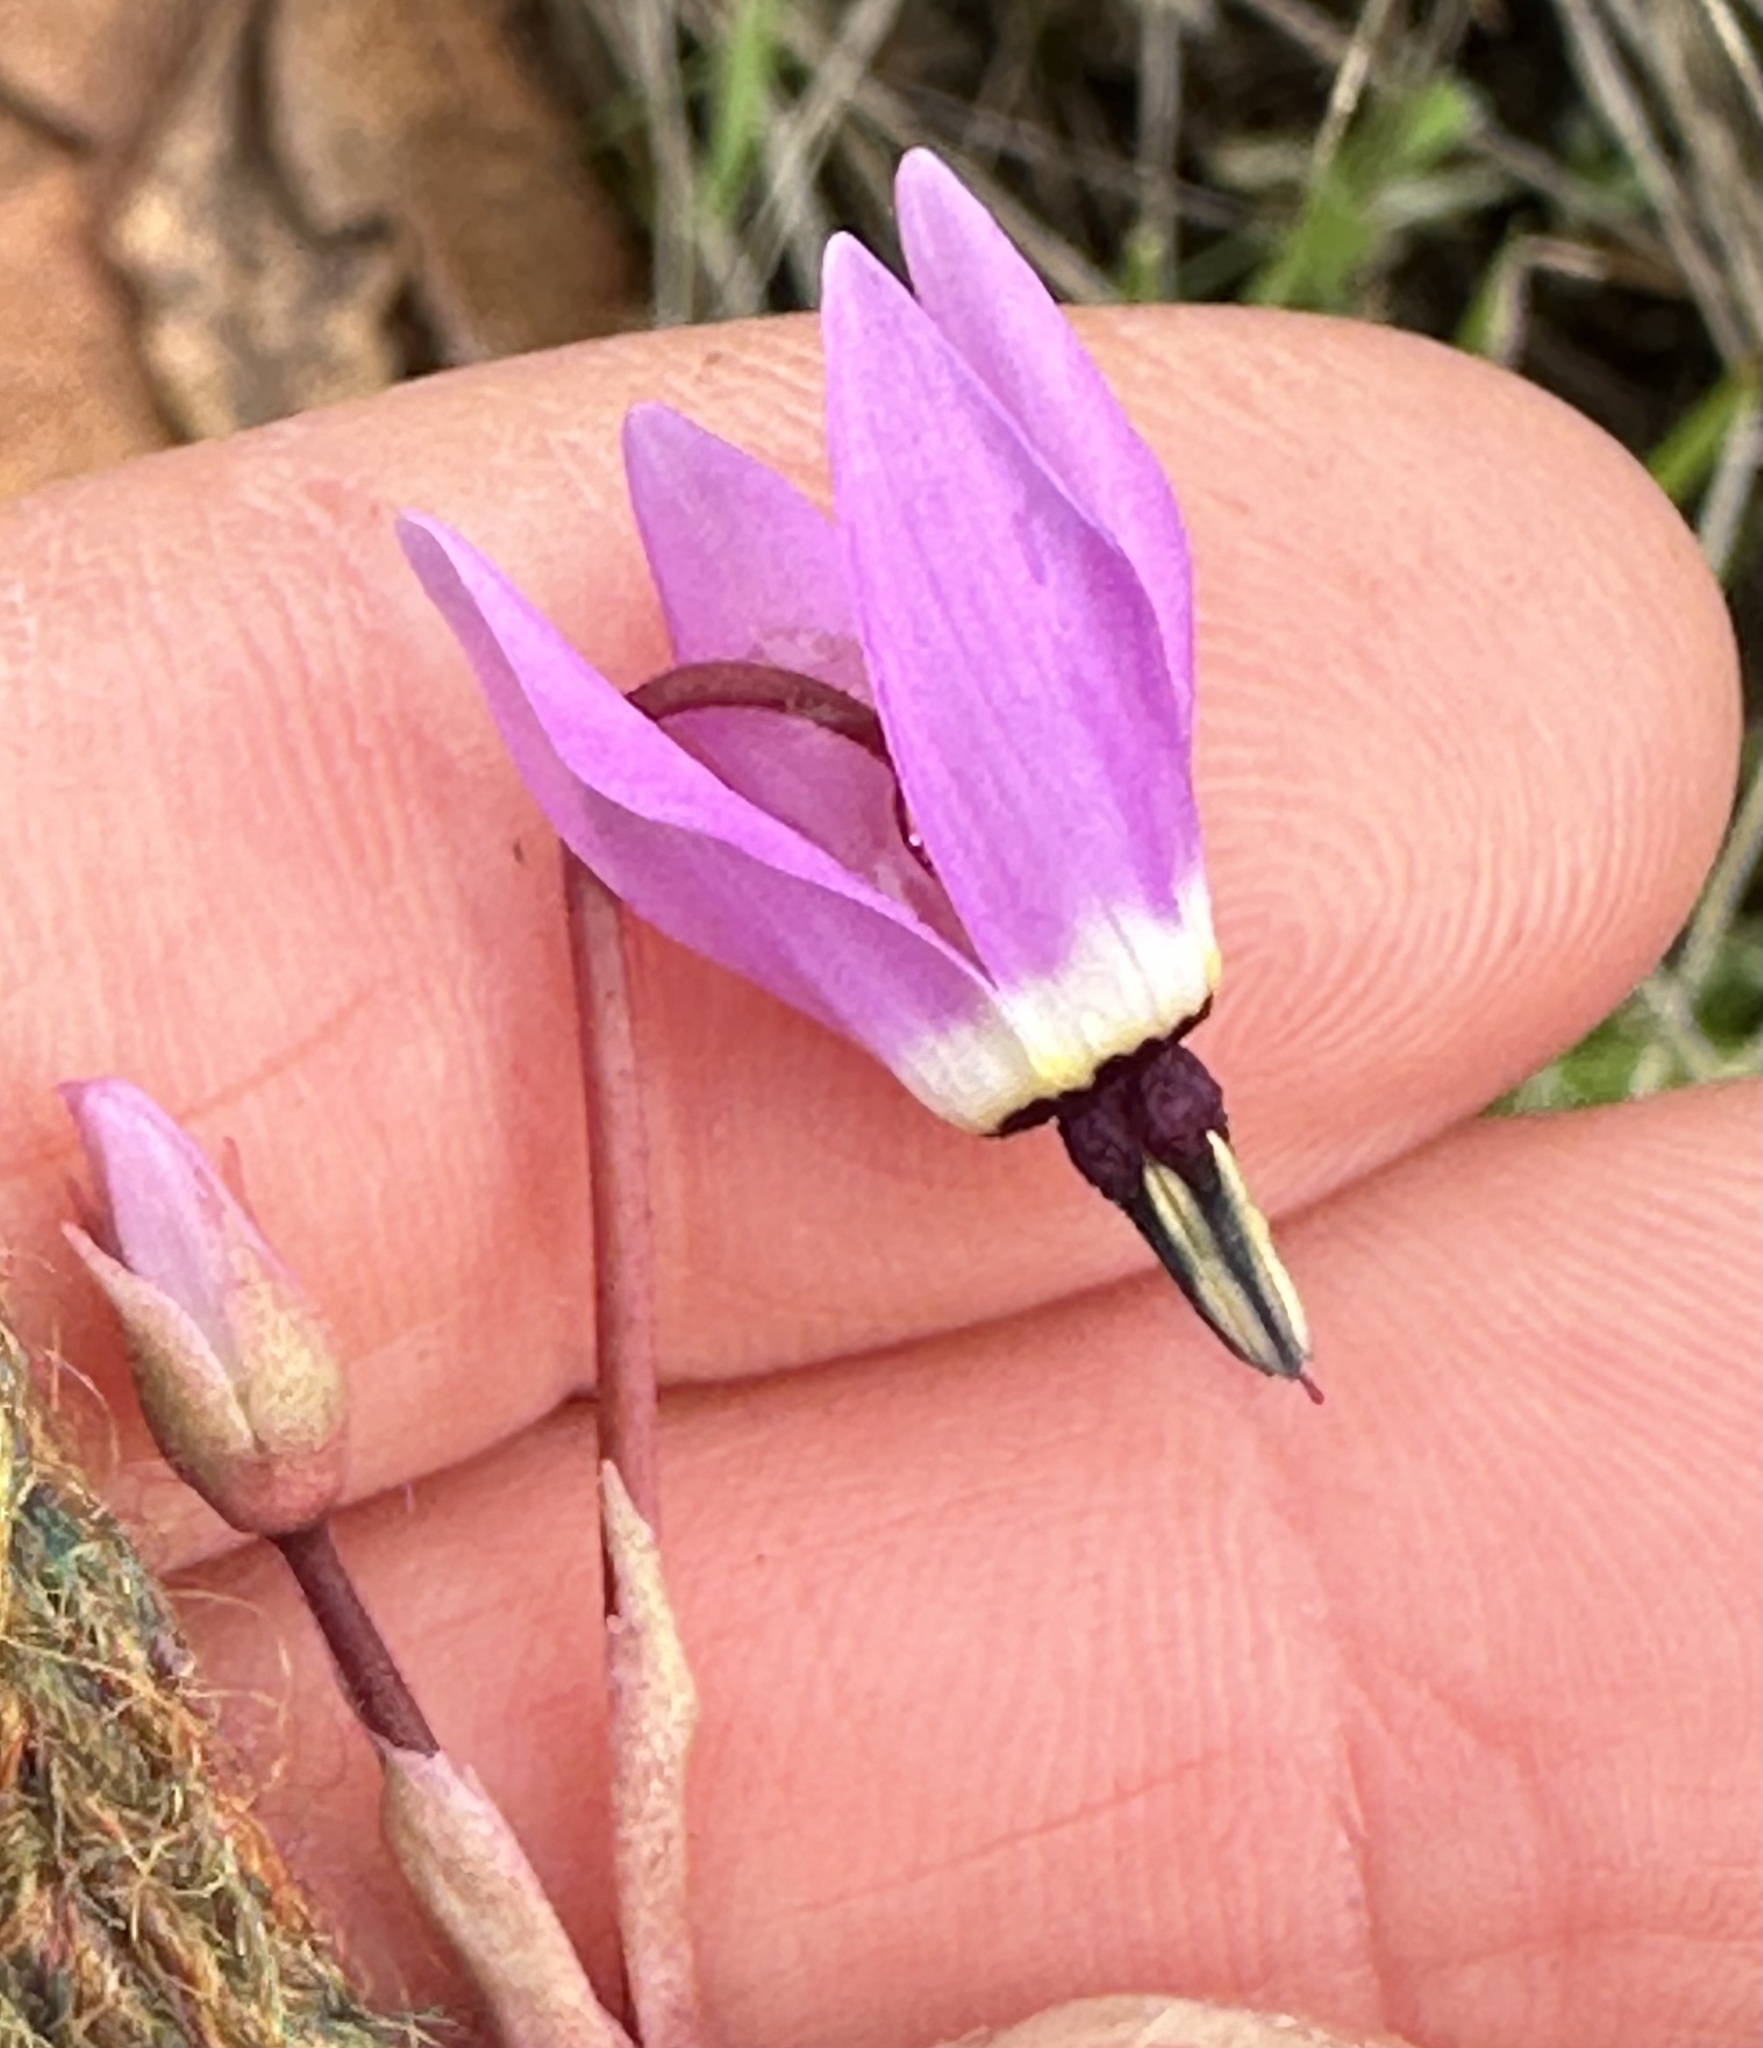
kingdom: Plantae
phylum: Tracheophyta
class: Magnoliopsida
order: Ericales
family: Primulaceae
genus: Dodecatheon
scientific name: Dodecatheon hendersonii
